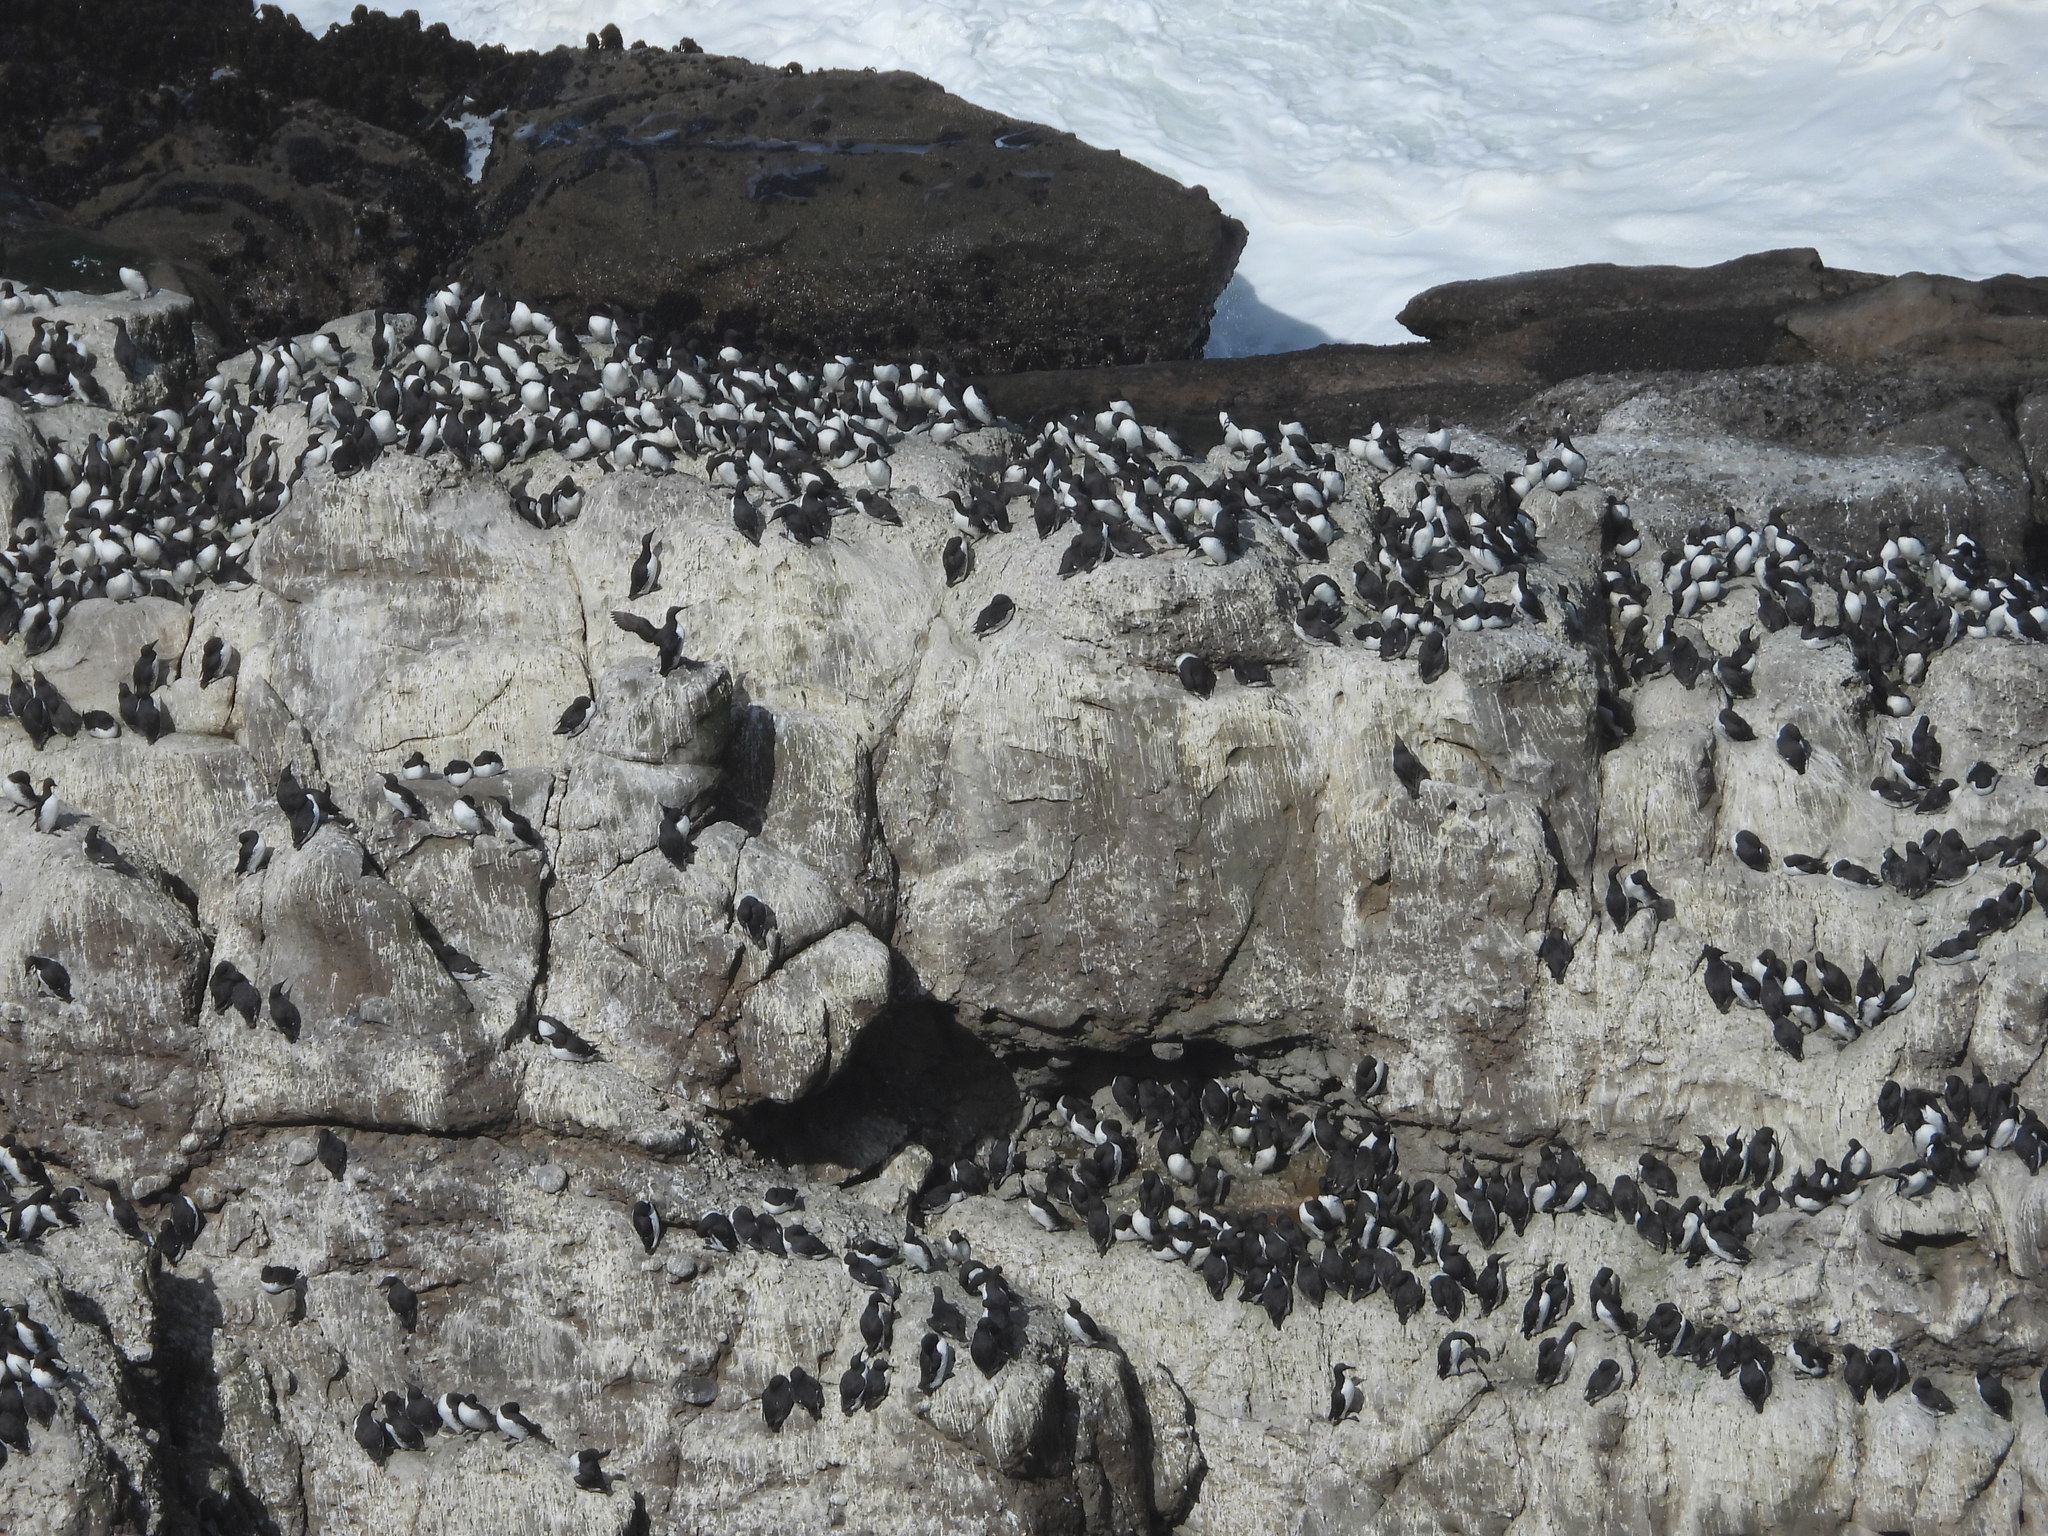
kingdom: Animalia
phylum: Chordata
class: Aves
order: Charadriiformes
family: Alcidae
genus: Uria
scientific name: Uria aalge
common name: Common murre
